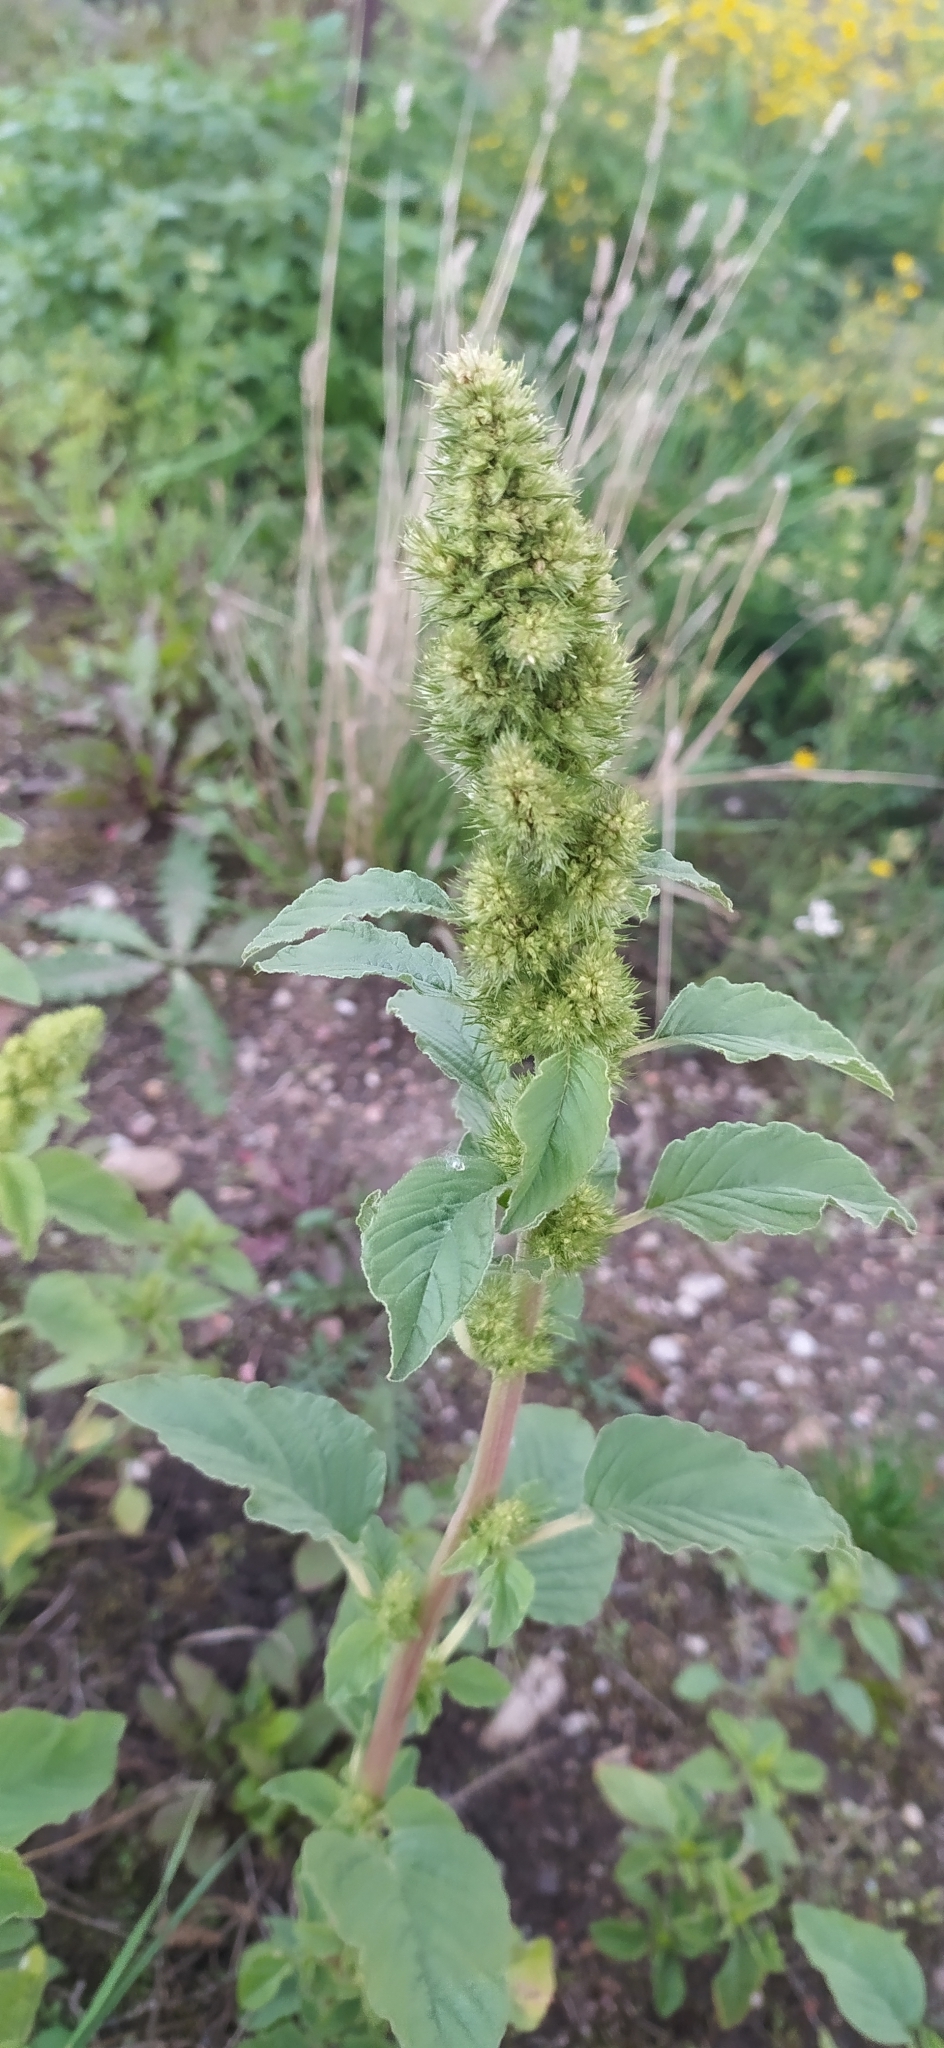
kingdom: Plantae
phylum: Tracheophyta
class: Magnoliopsida
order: Caryophyllales
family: Amaranthaceae
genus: Amaranthus
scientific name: Amaranthus retroflexus
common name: Redroot amaranth
